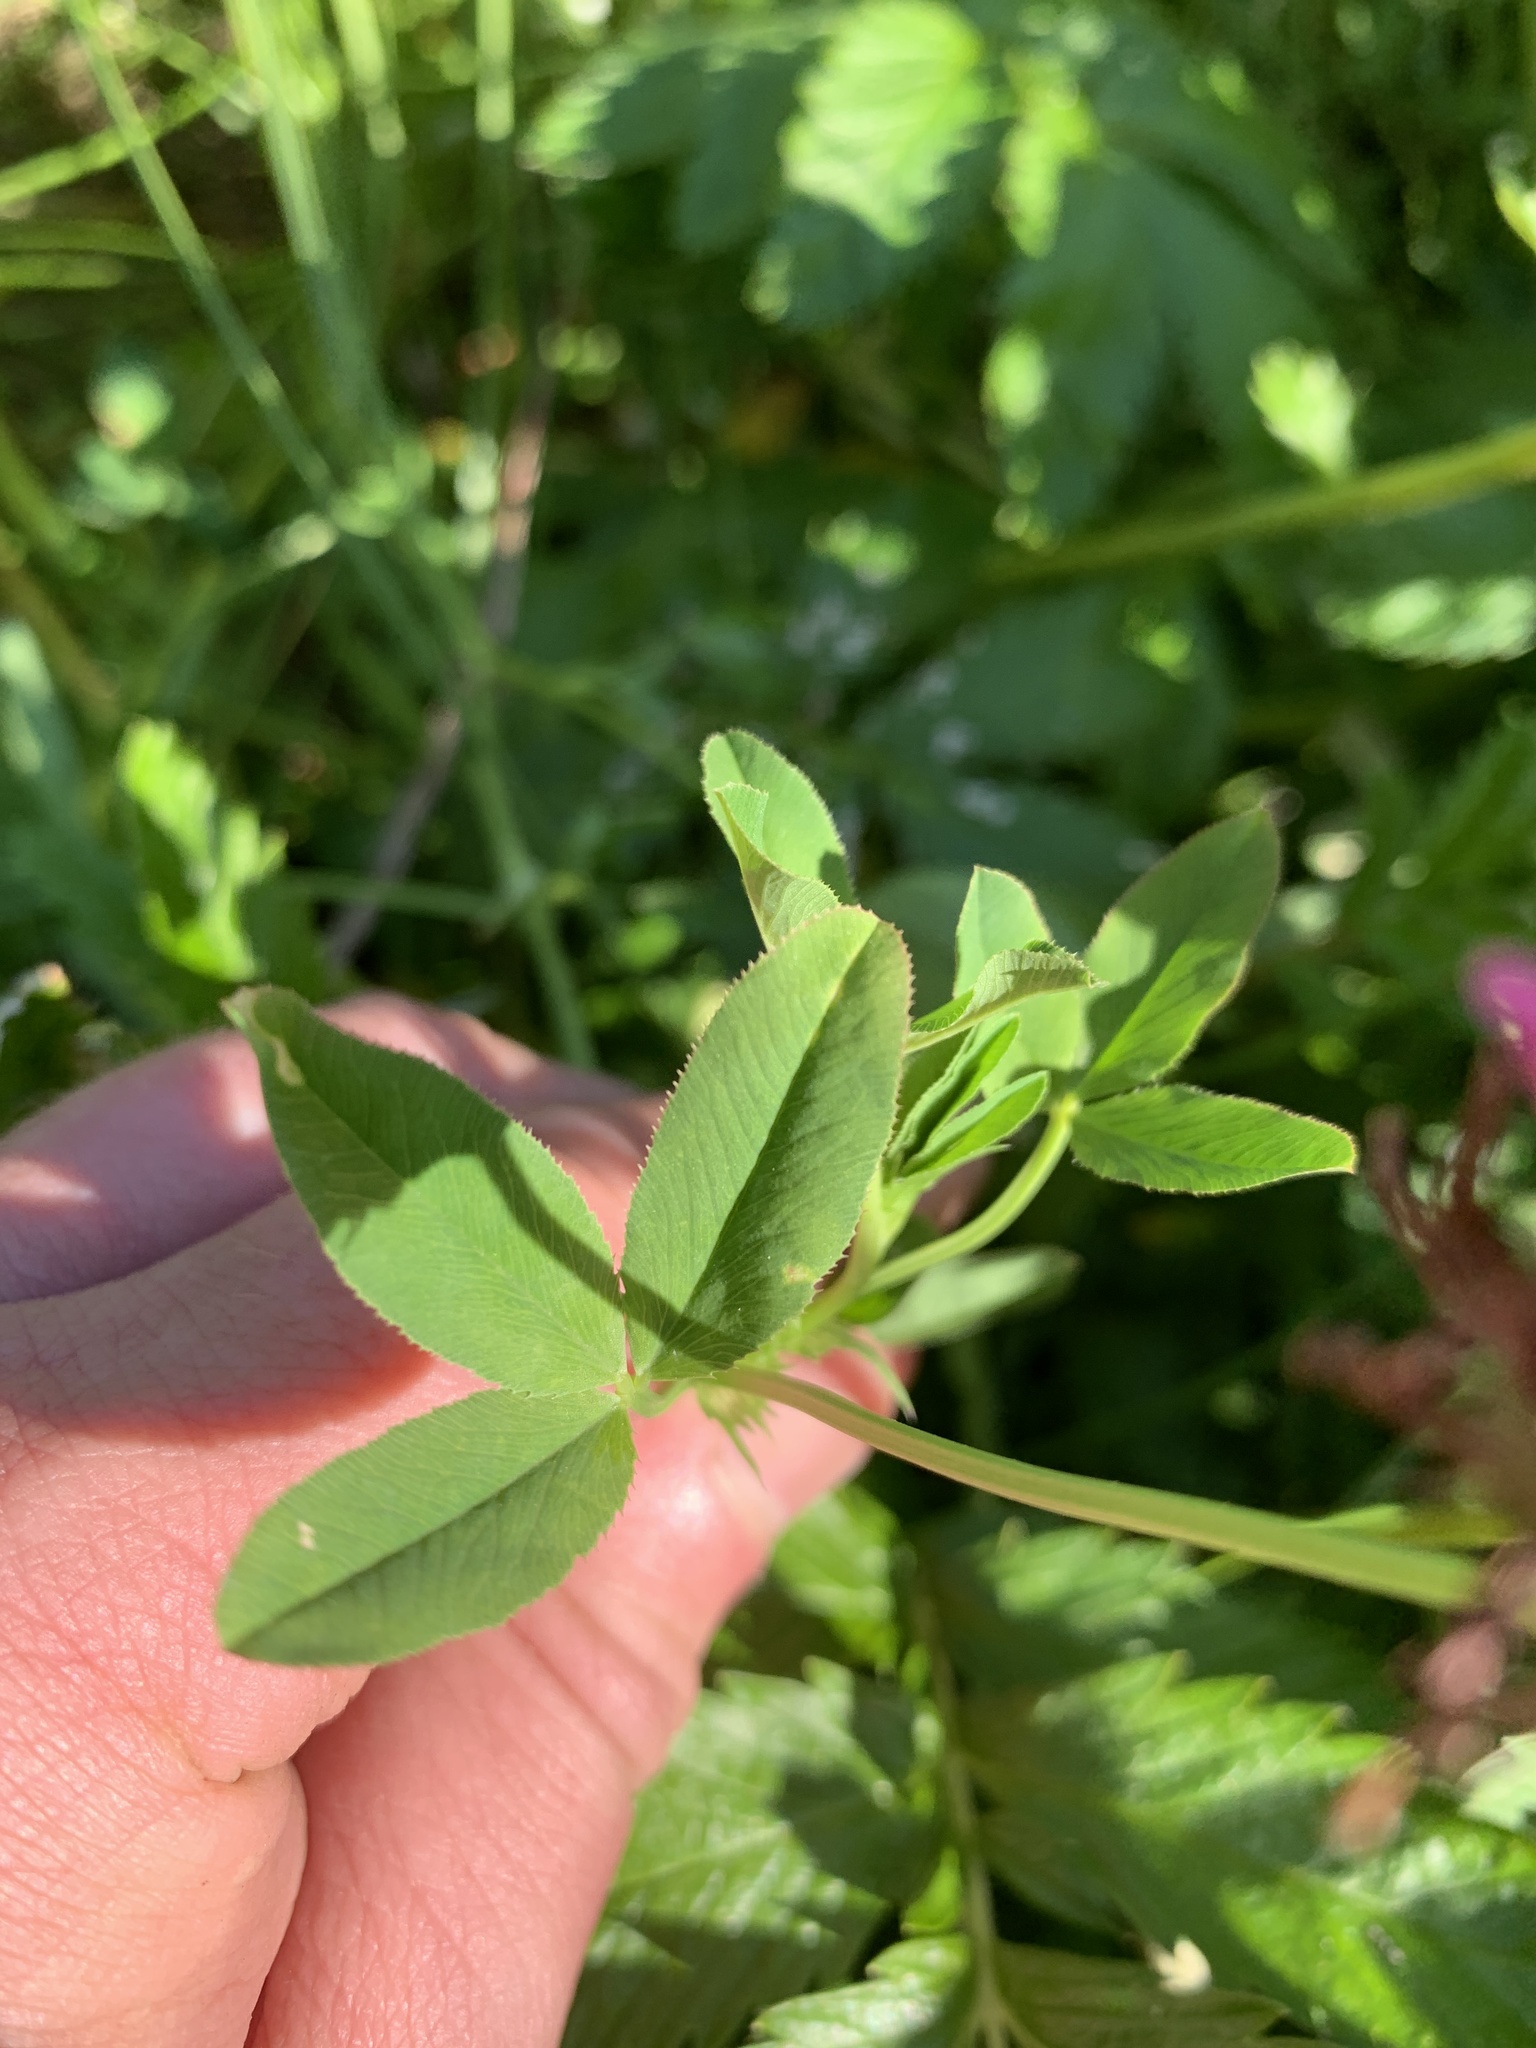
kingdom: Plantae
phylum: Tracheophyta
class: Magnoliopsida
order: Fabales
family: Fabaceae
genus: Trifolium
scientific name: Trifolium wormskioldii
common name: Springbank clover
